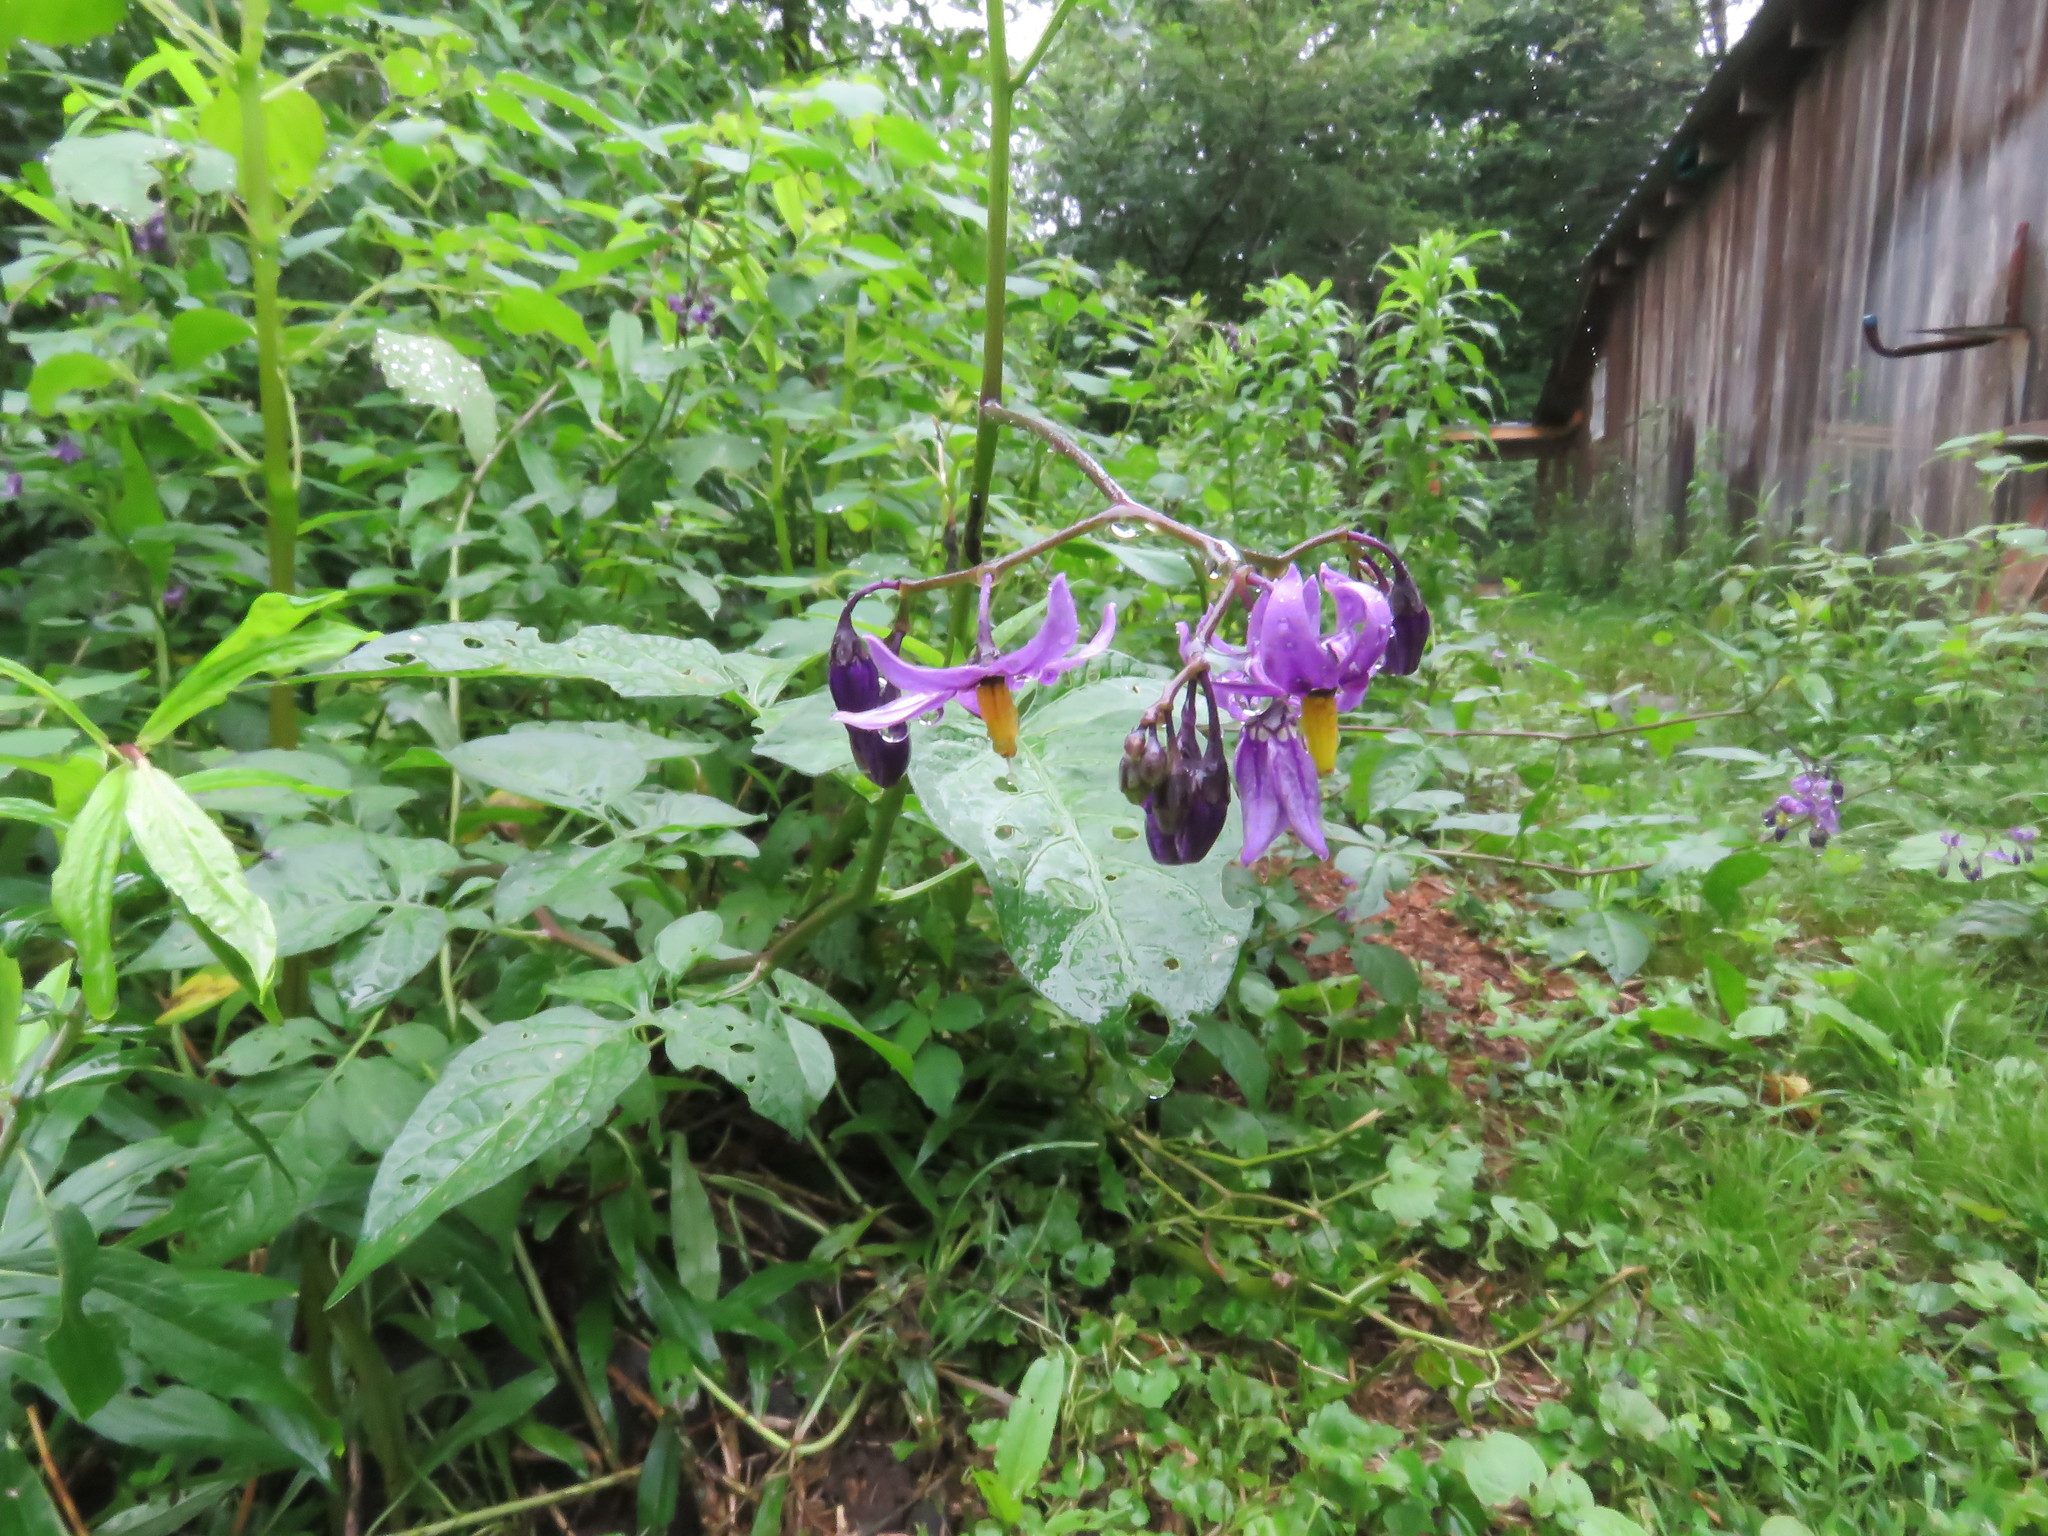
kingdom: Plantae
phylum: Tracheophyta
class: Magnoliopsida
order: Solanales
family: Solanaceae
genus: Solanum
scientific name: Solanum dulcamara
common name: Climbing nightshade
